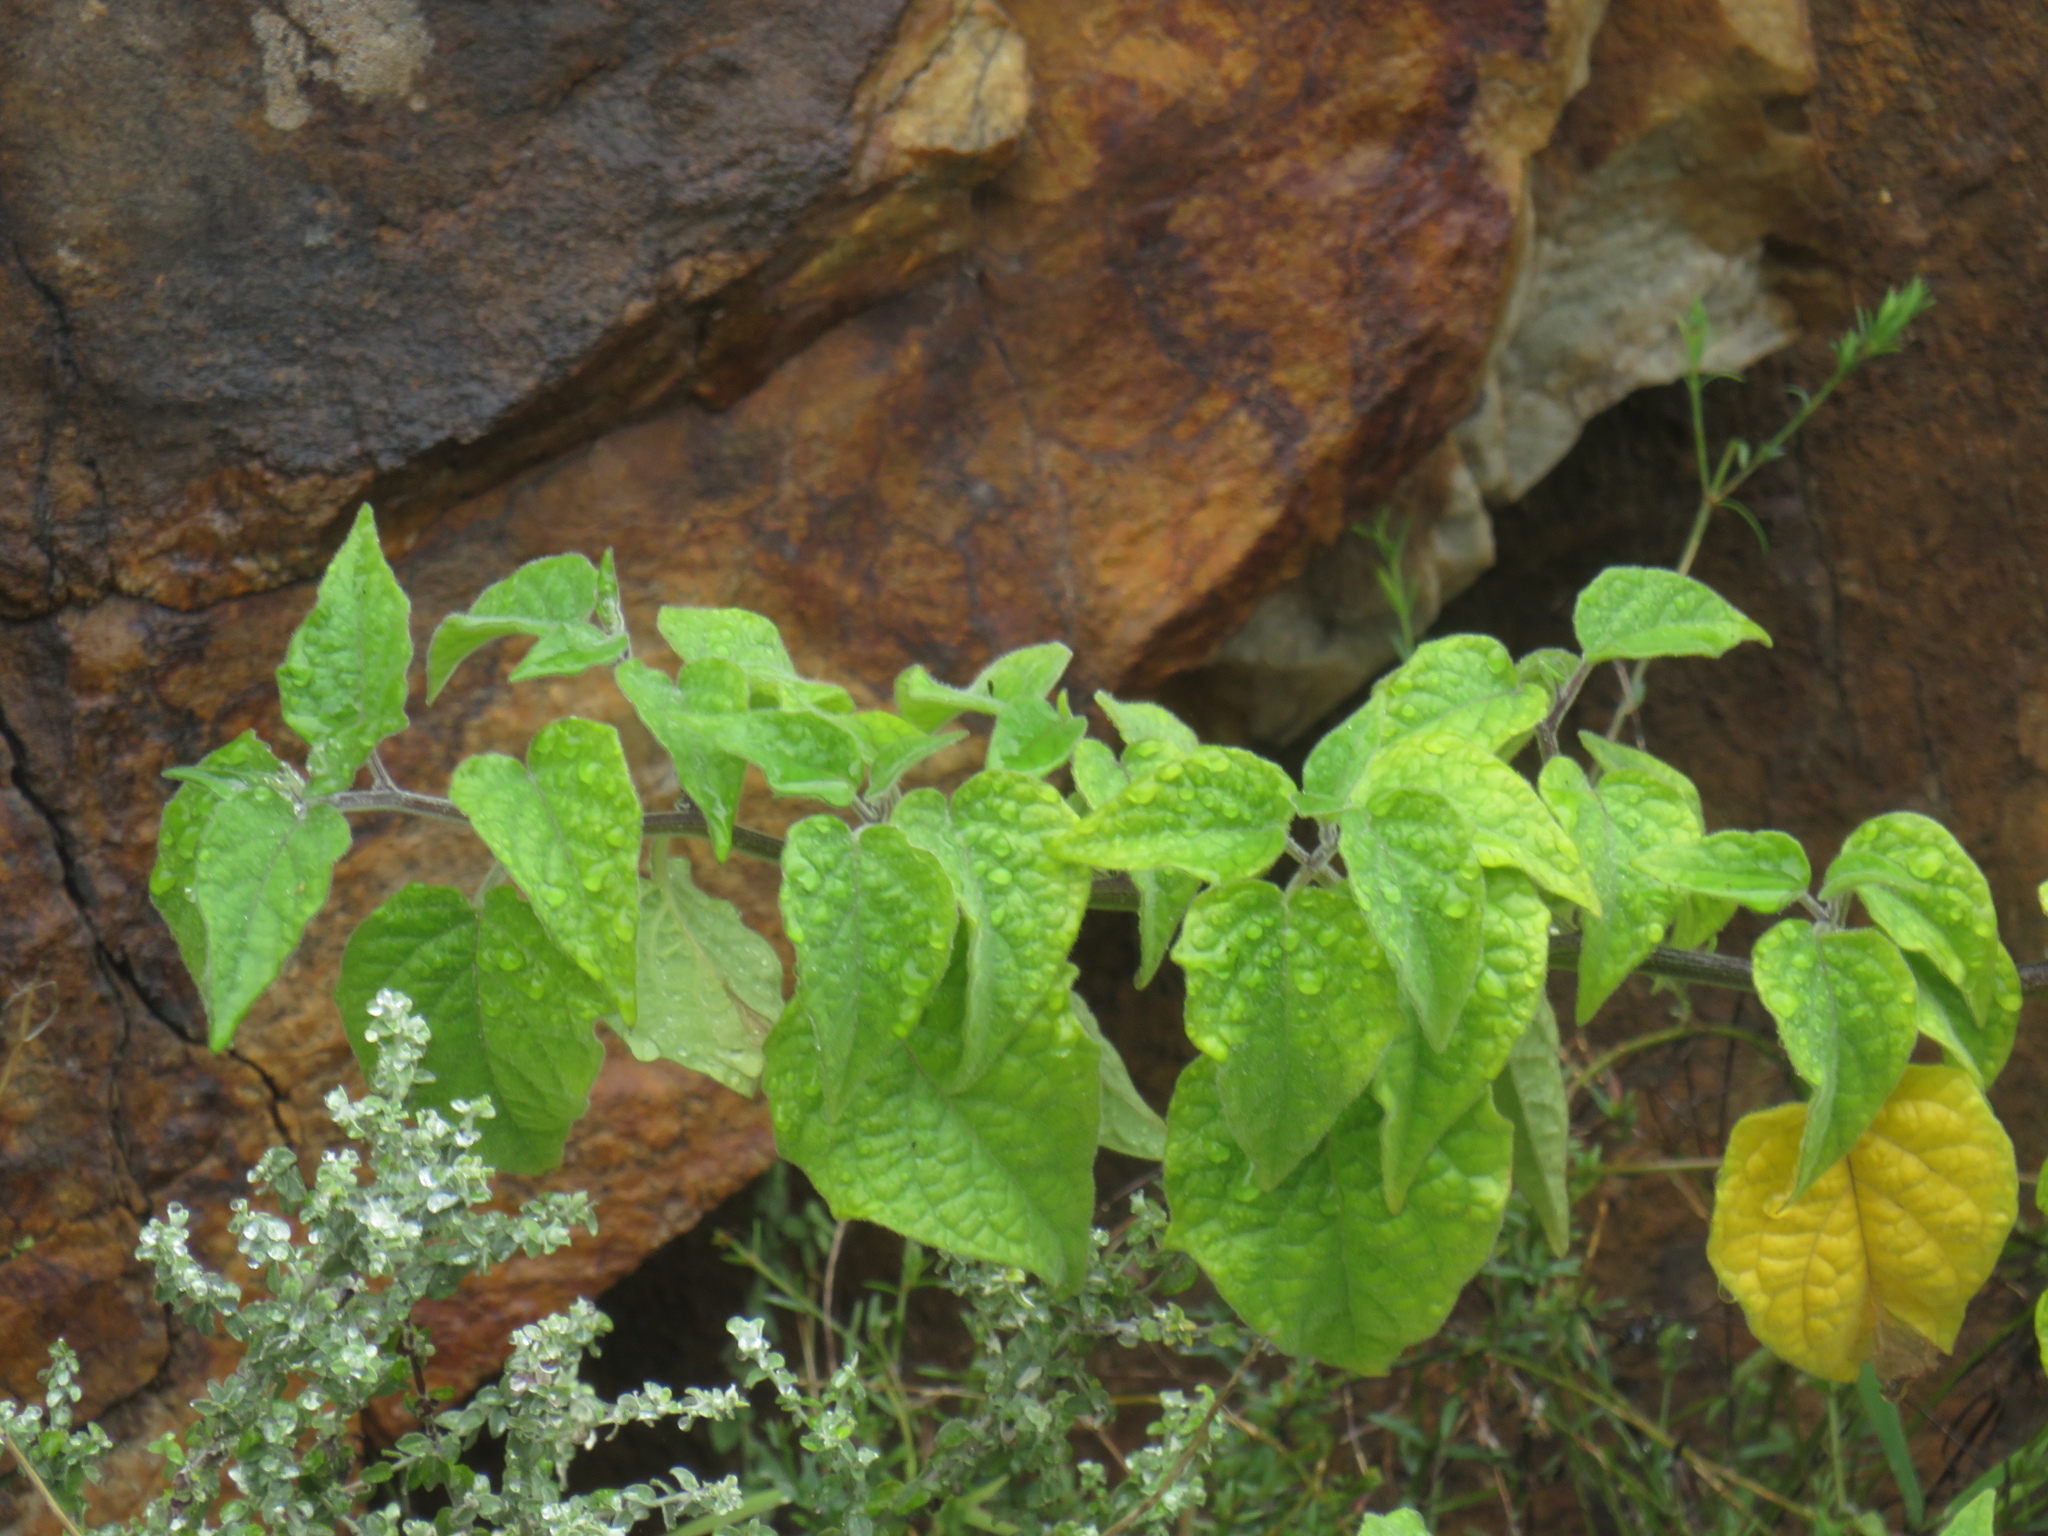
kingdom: Plantae
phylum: Tracheophyta
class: Magnoliopsida
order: Solanales
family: Solanaceae
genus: Physalis
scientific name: Physalis peruviana
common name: Cape-gooseberry
